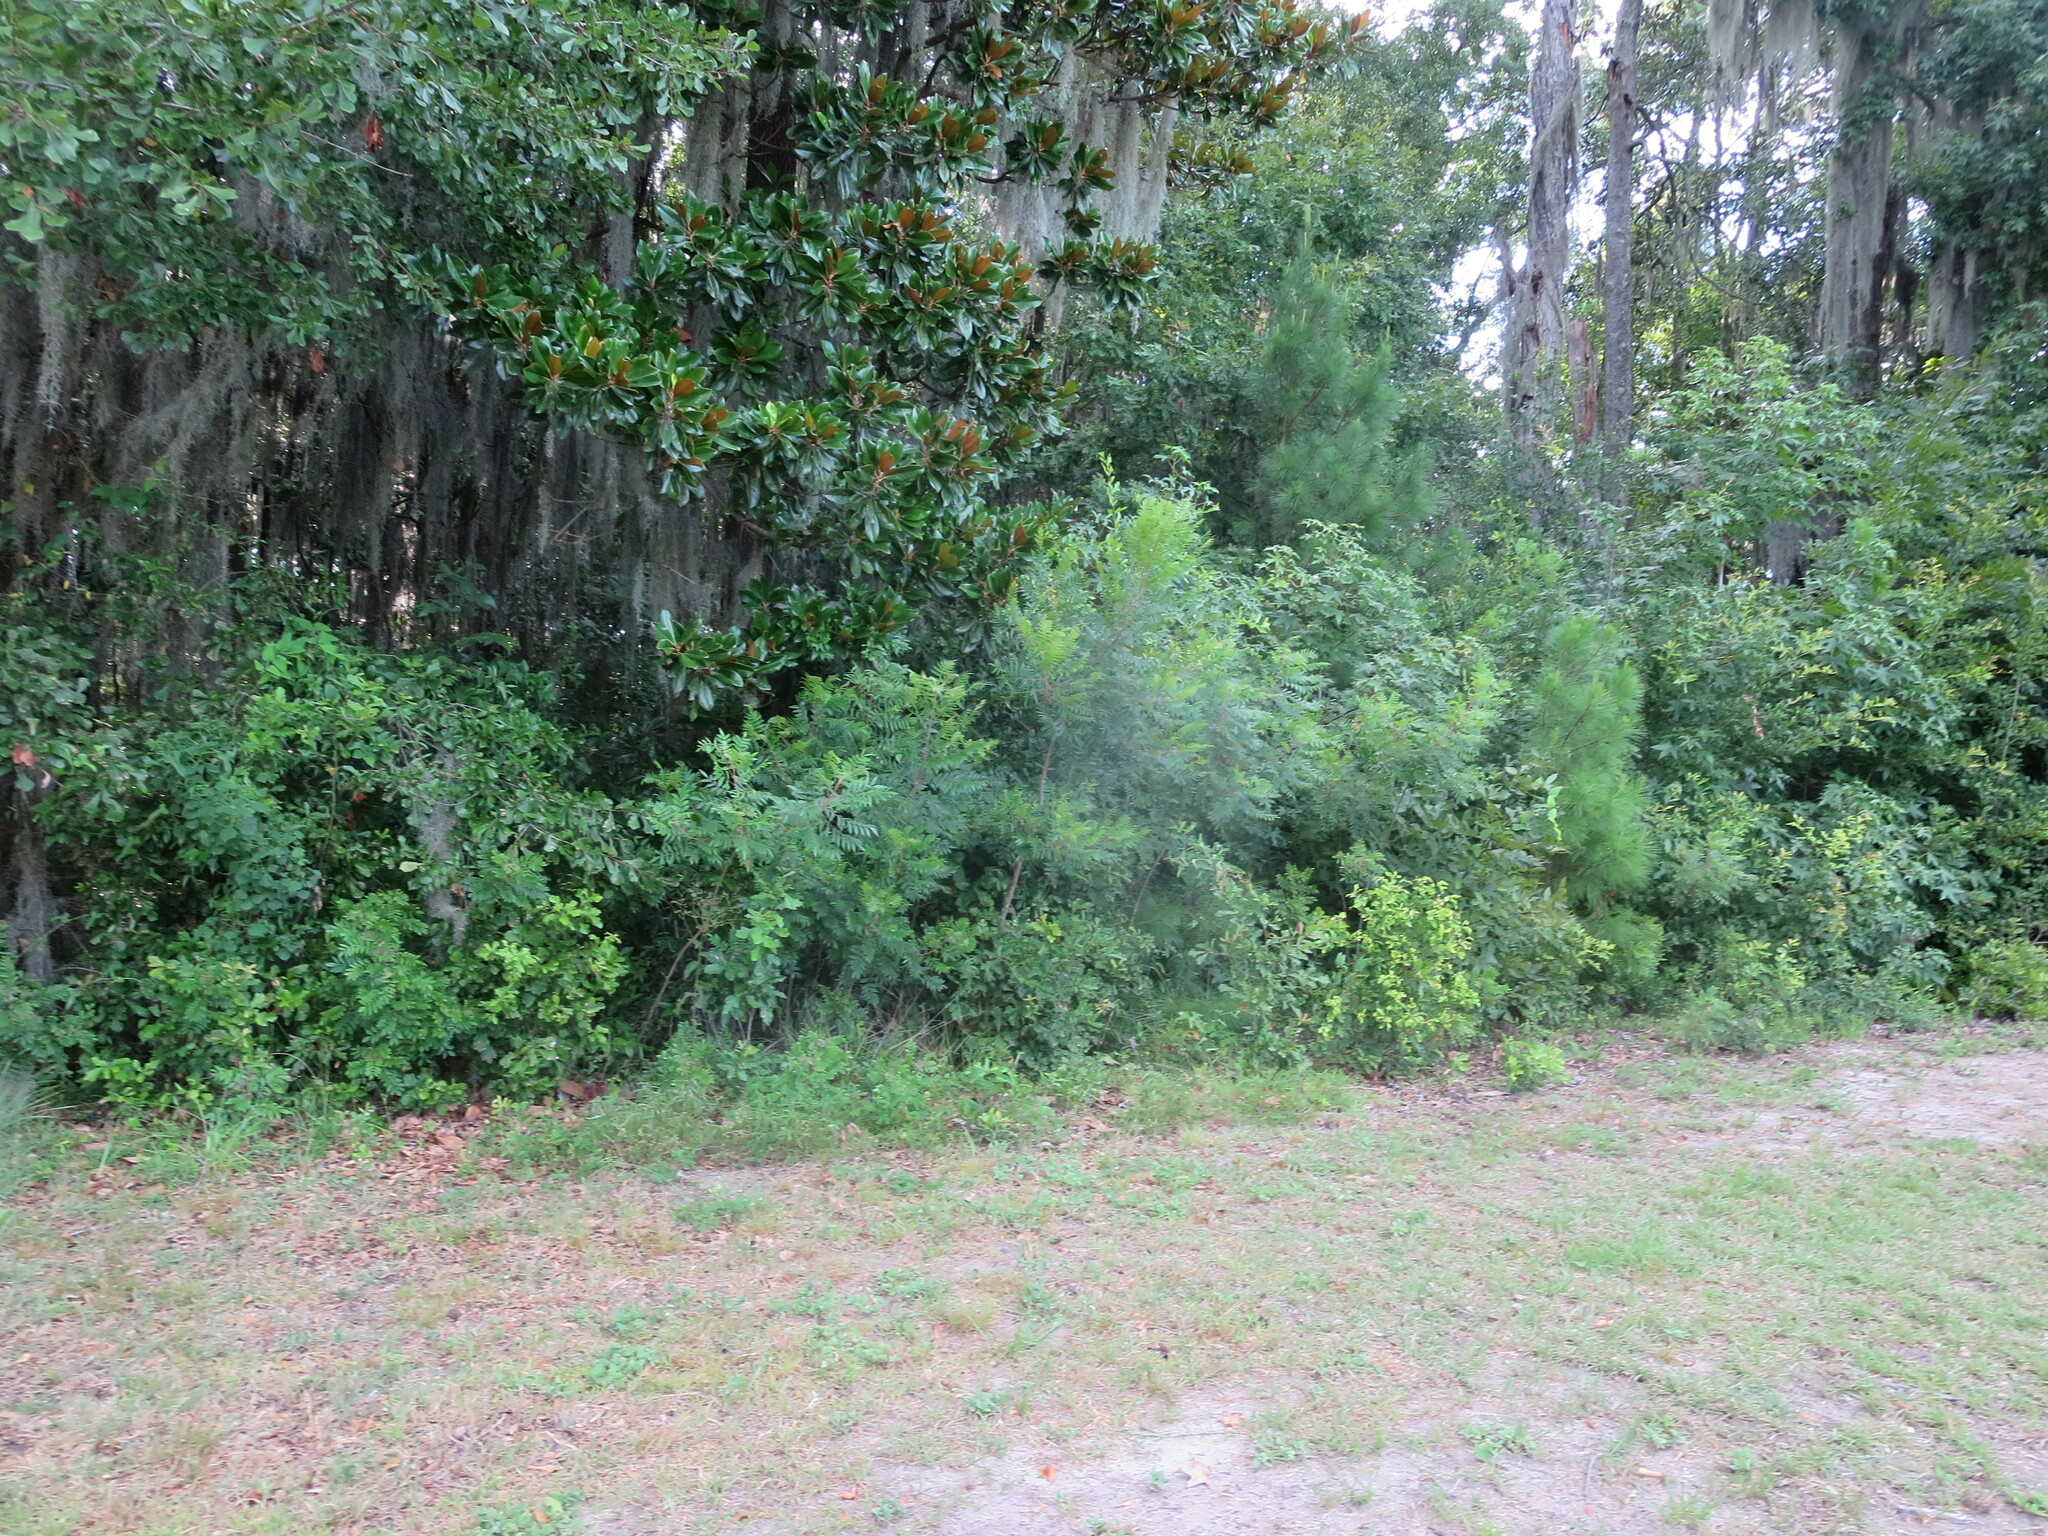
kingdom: Plantae
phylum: Tracheophyta
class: Magnoliopsida
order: Sapindales
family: Anacardiaceae
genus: Rhus
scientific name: Rhus copallina
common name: Shining sumac
